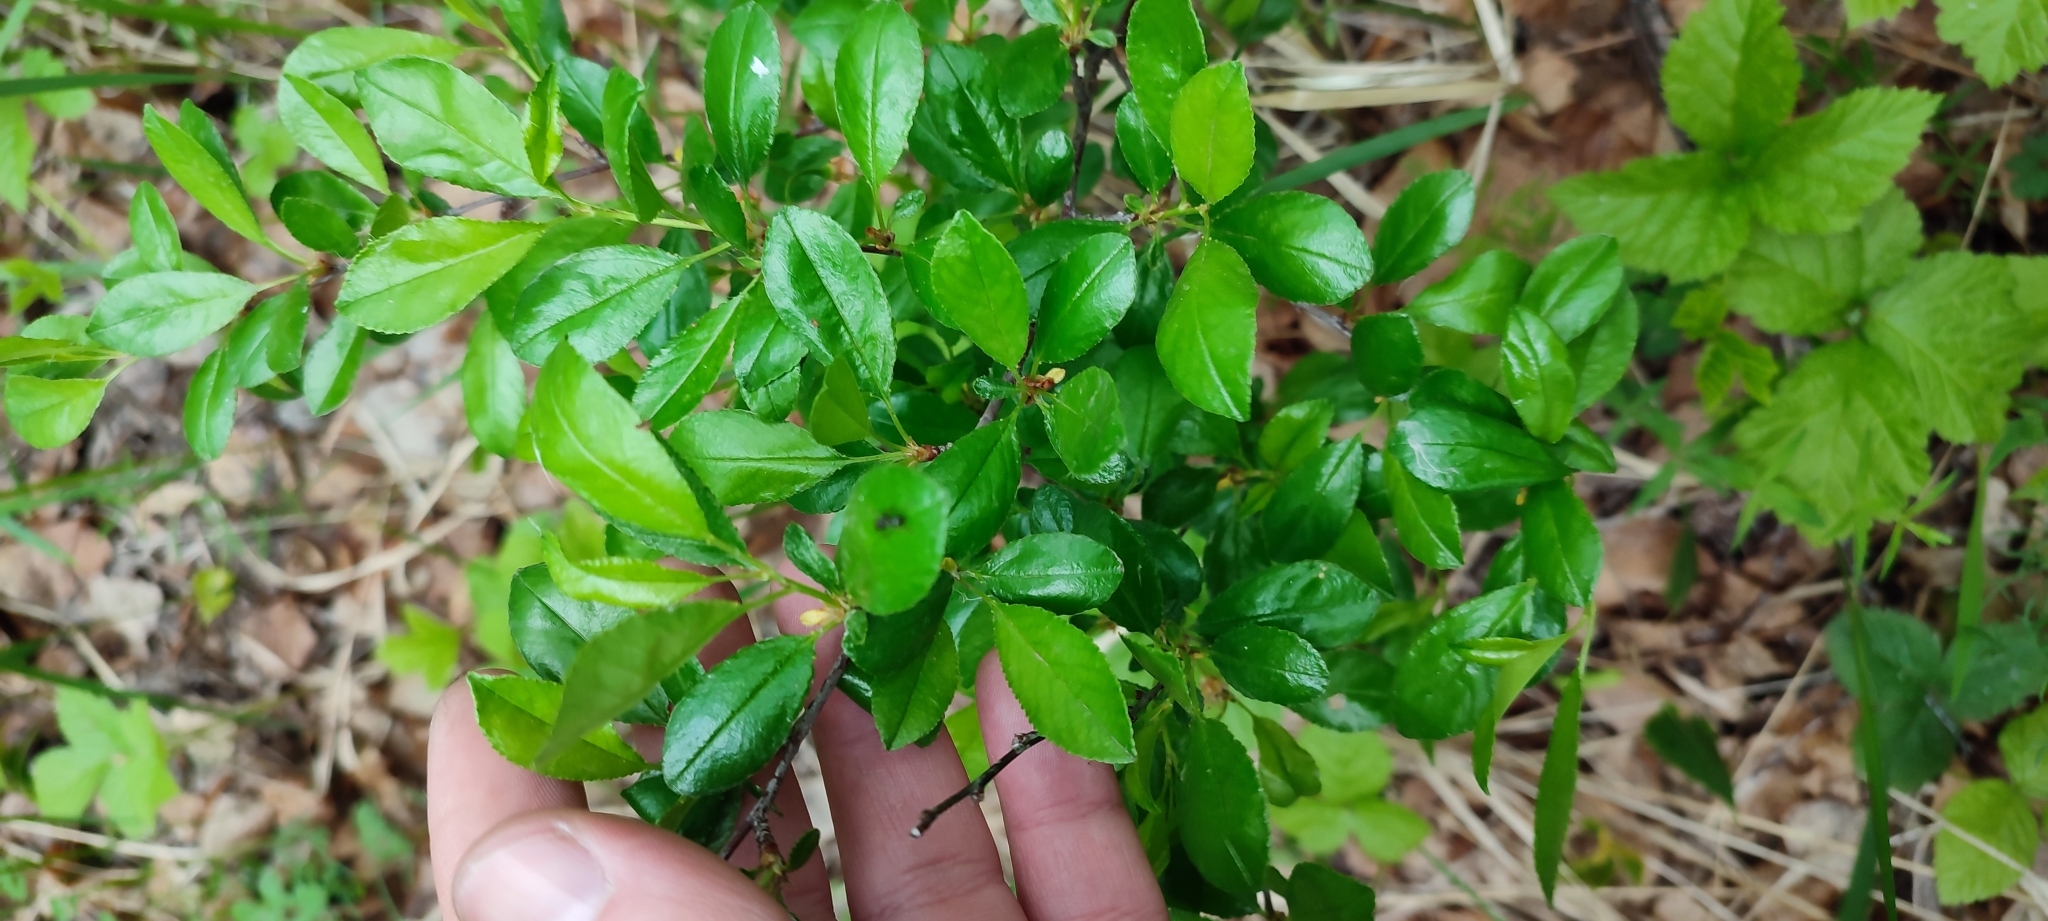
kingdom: Plantae
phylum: Tracheophyta
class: Magnoliopsida
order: Rosales
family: Rosaceae
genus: Prunus
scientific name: Prunus fruticosa
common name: European dwarf cherry
